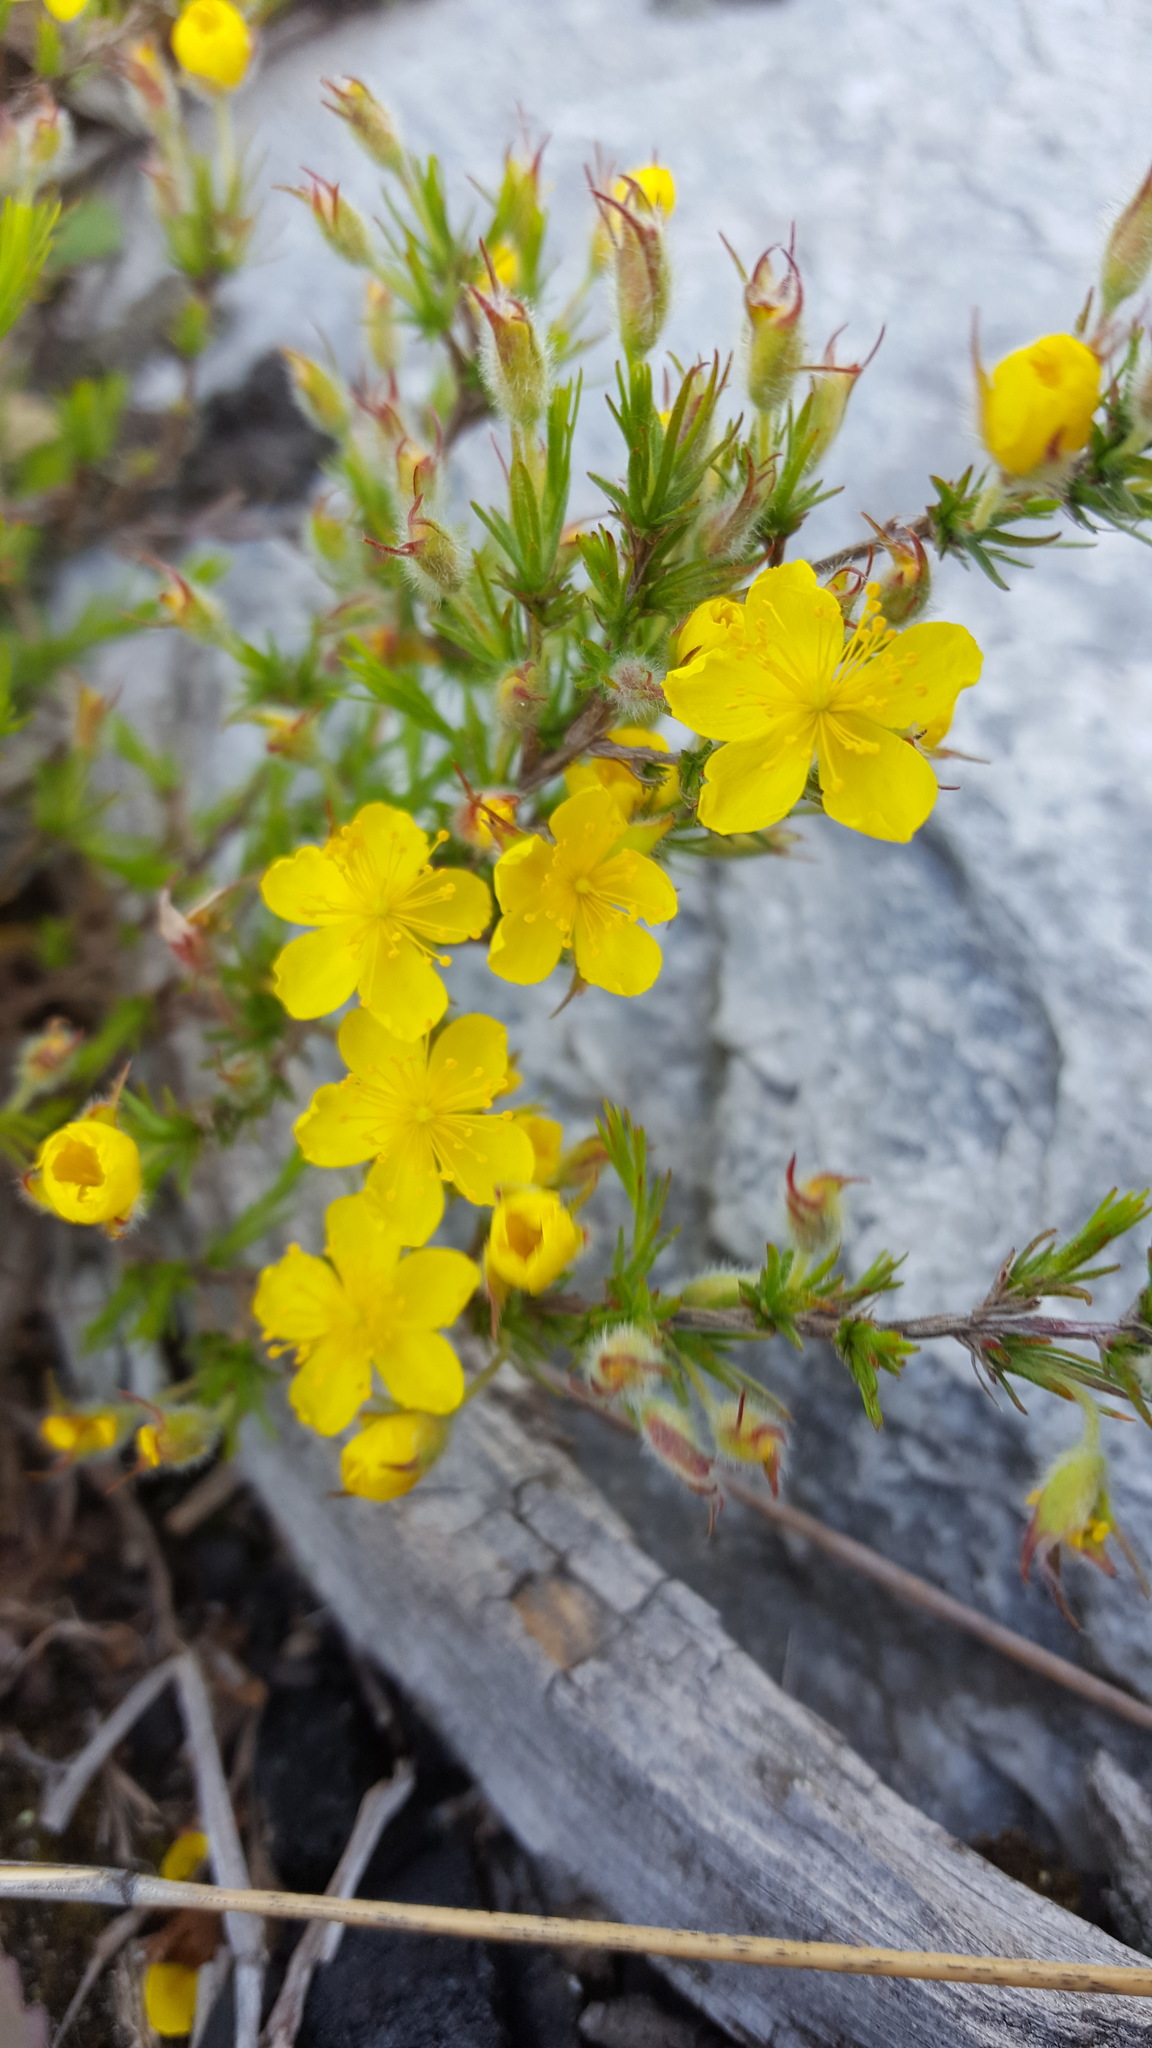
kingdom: Plantae
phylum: Tracheophyta
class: Magnoliopsida
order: Malvales
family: Cistaceae
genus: Hudsonia
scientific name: Hudsonia montana
